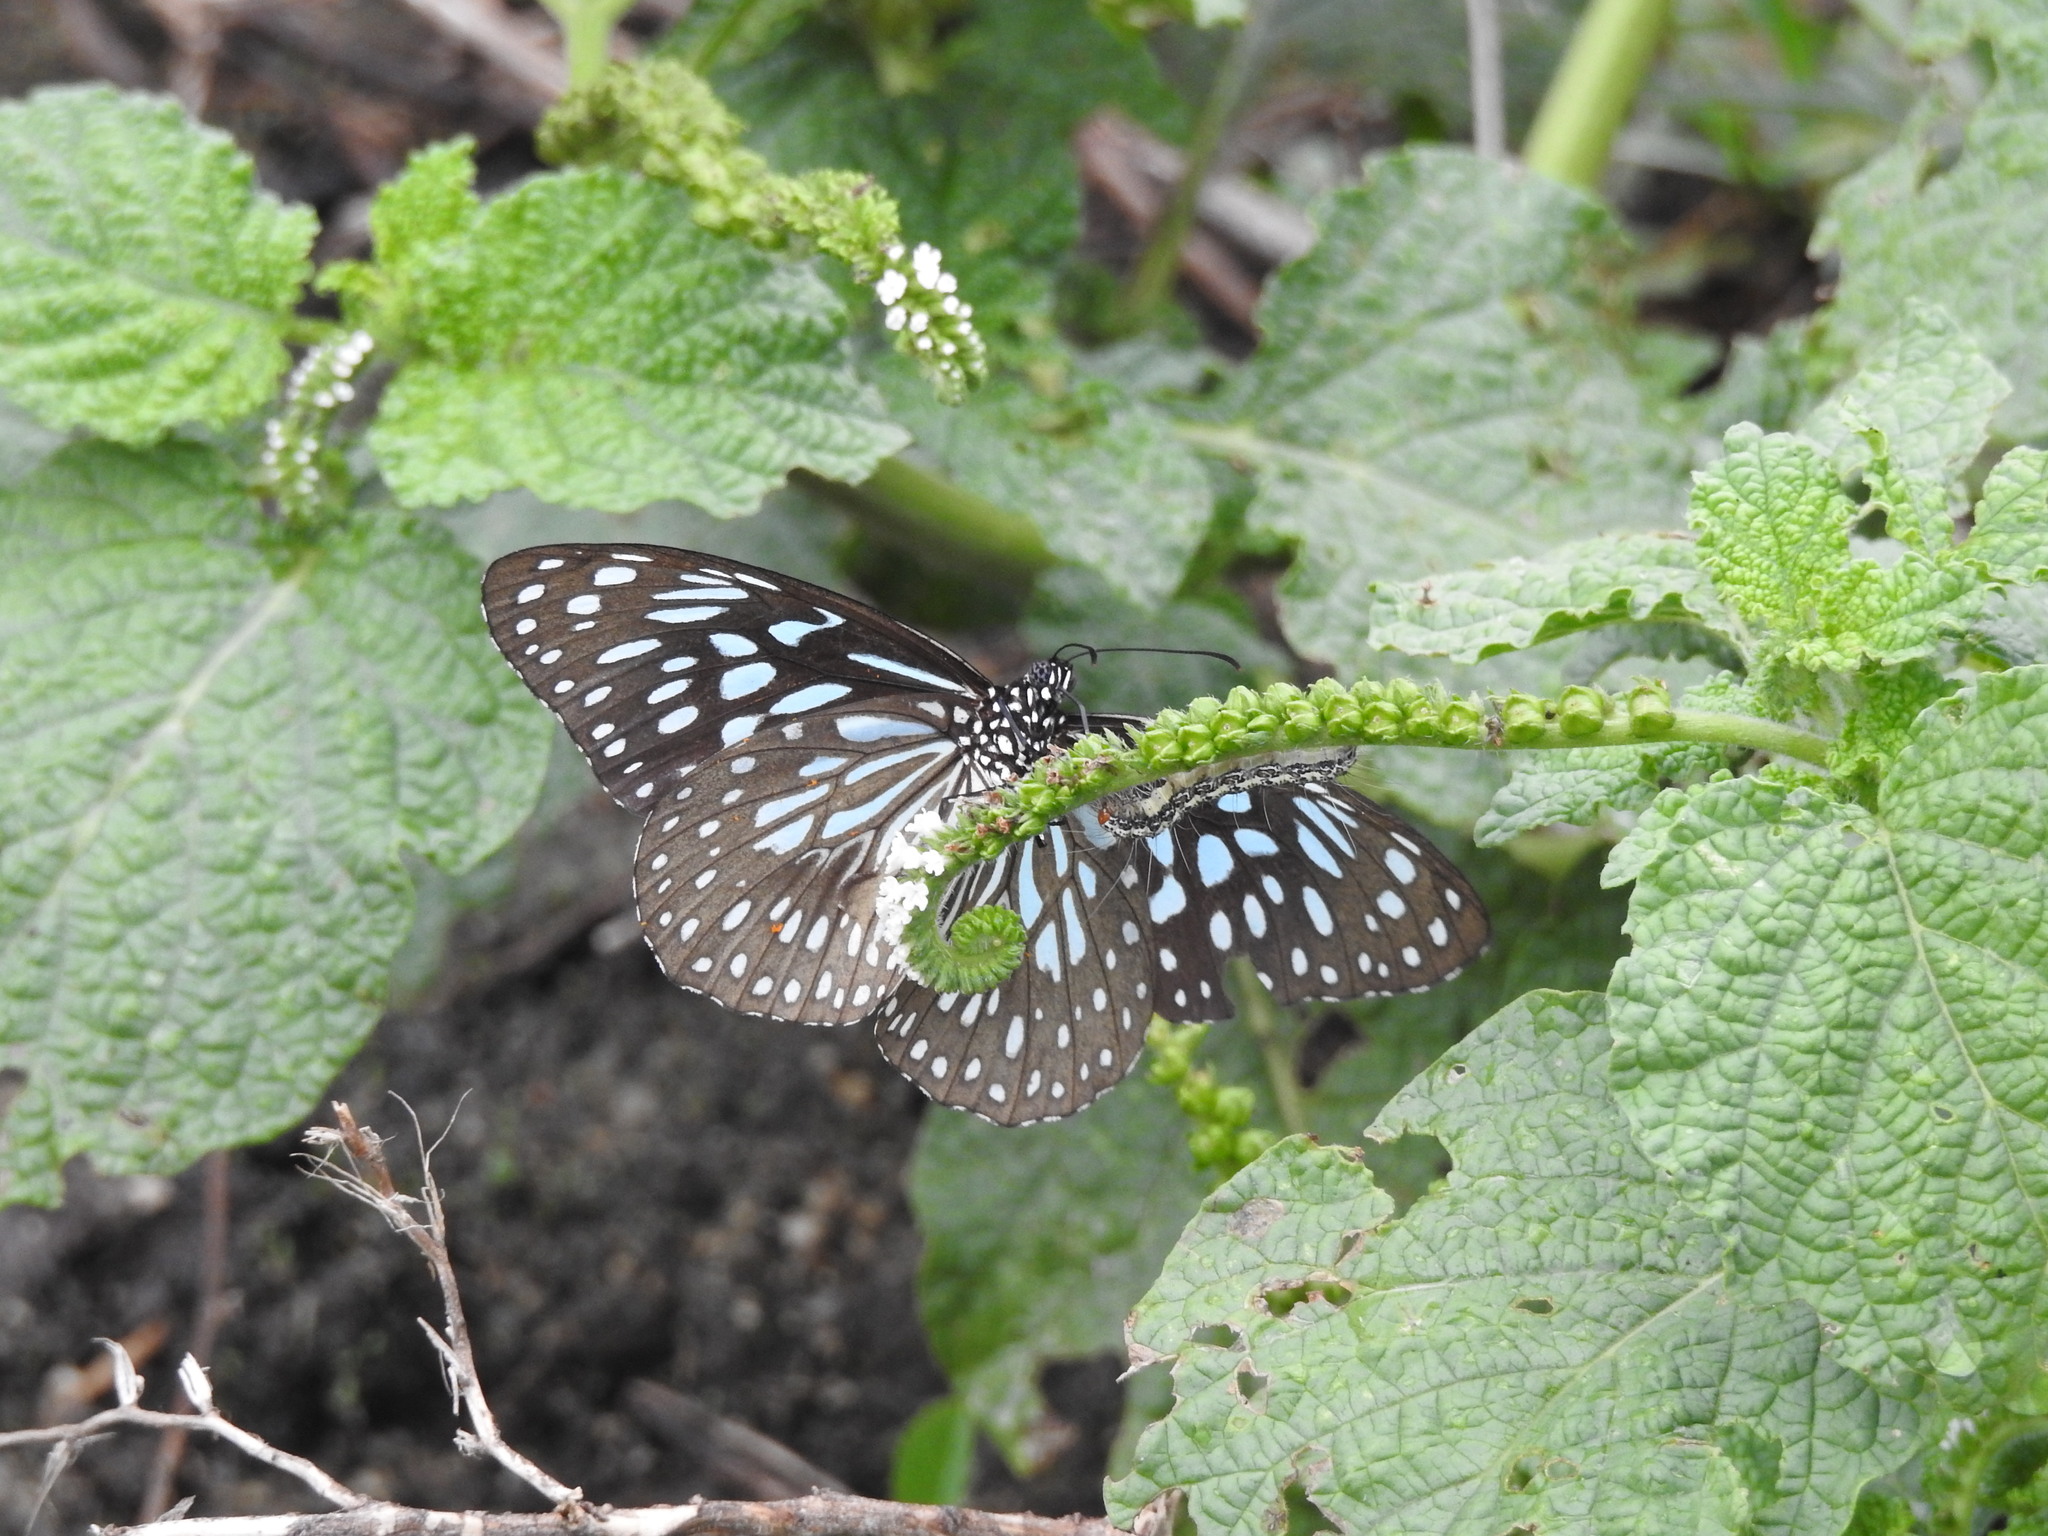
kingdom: Animalia
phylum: Arthropoda
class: Insecta
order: Lepidoptera
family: Nymphalidae
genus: Tirumala
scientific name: Tirumala septentrionis
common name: Dark blue tiger butterfly
